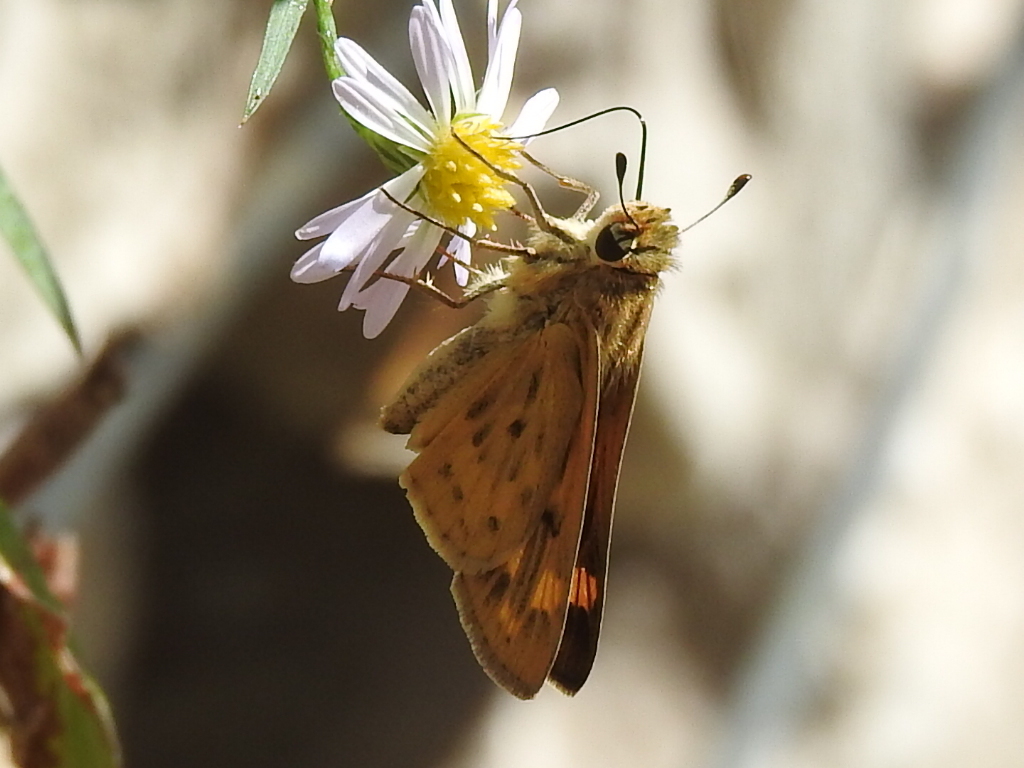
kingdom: Animalia
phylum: Arthropoda
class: Insecta
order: Lepidoptera
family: Hesperiidae
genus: Hylephila
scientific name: Hylephila phyleus
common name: Fiery skipper
